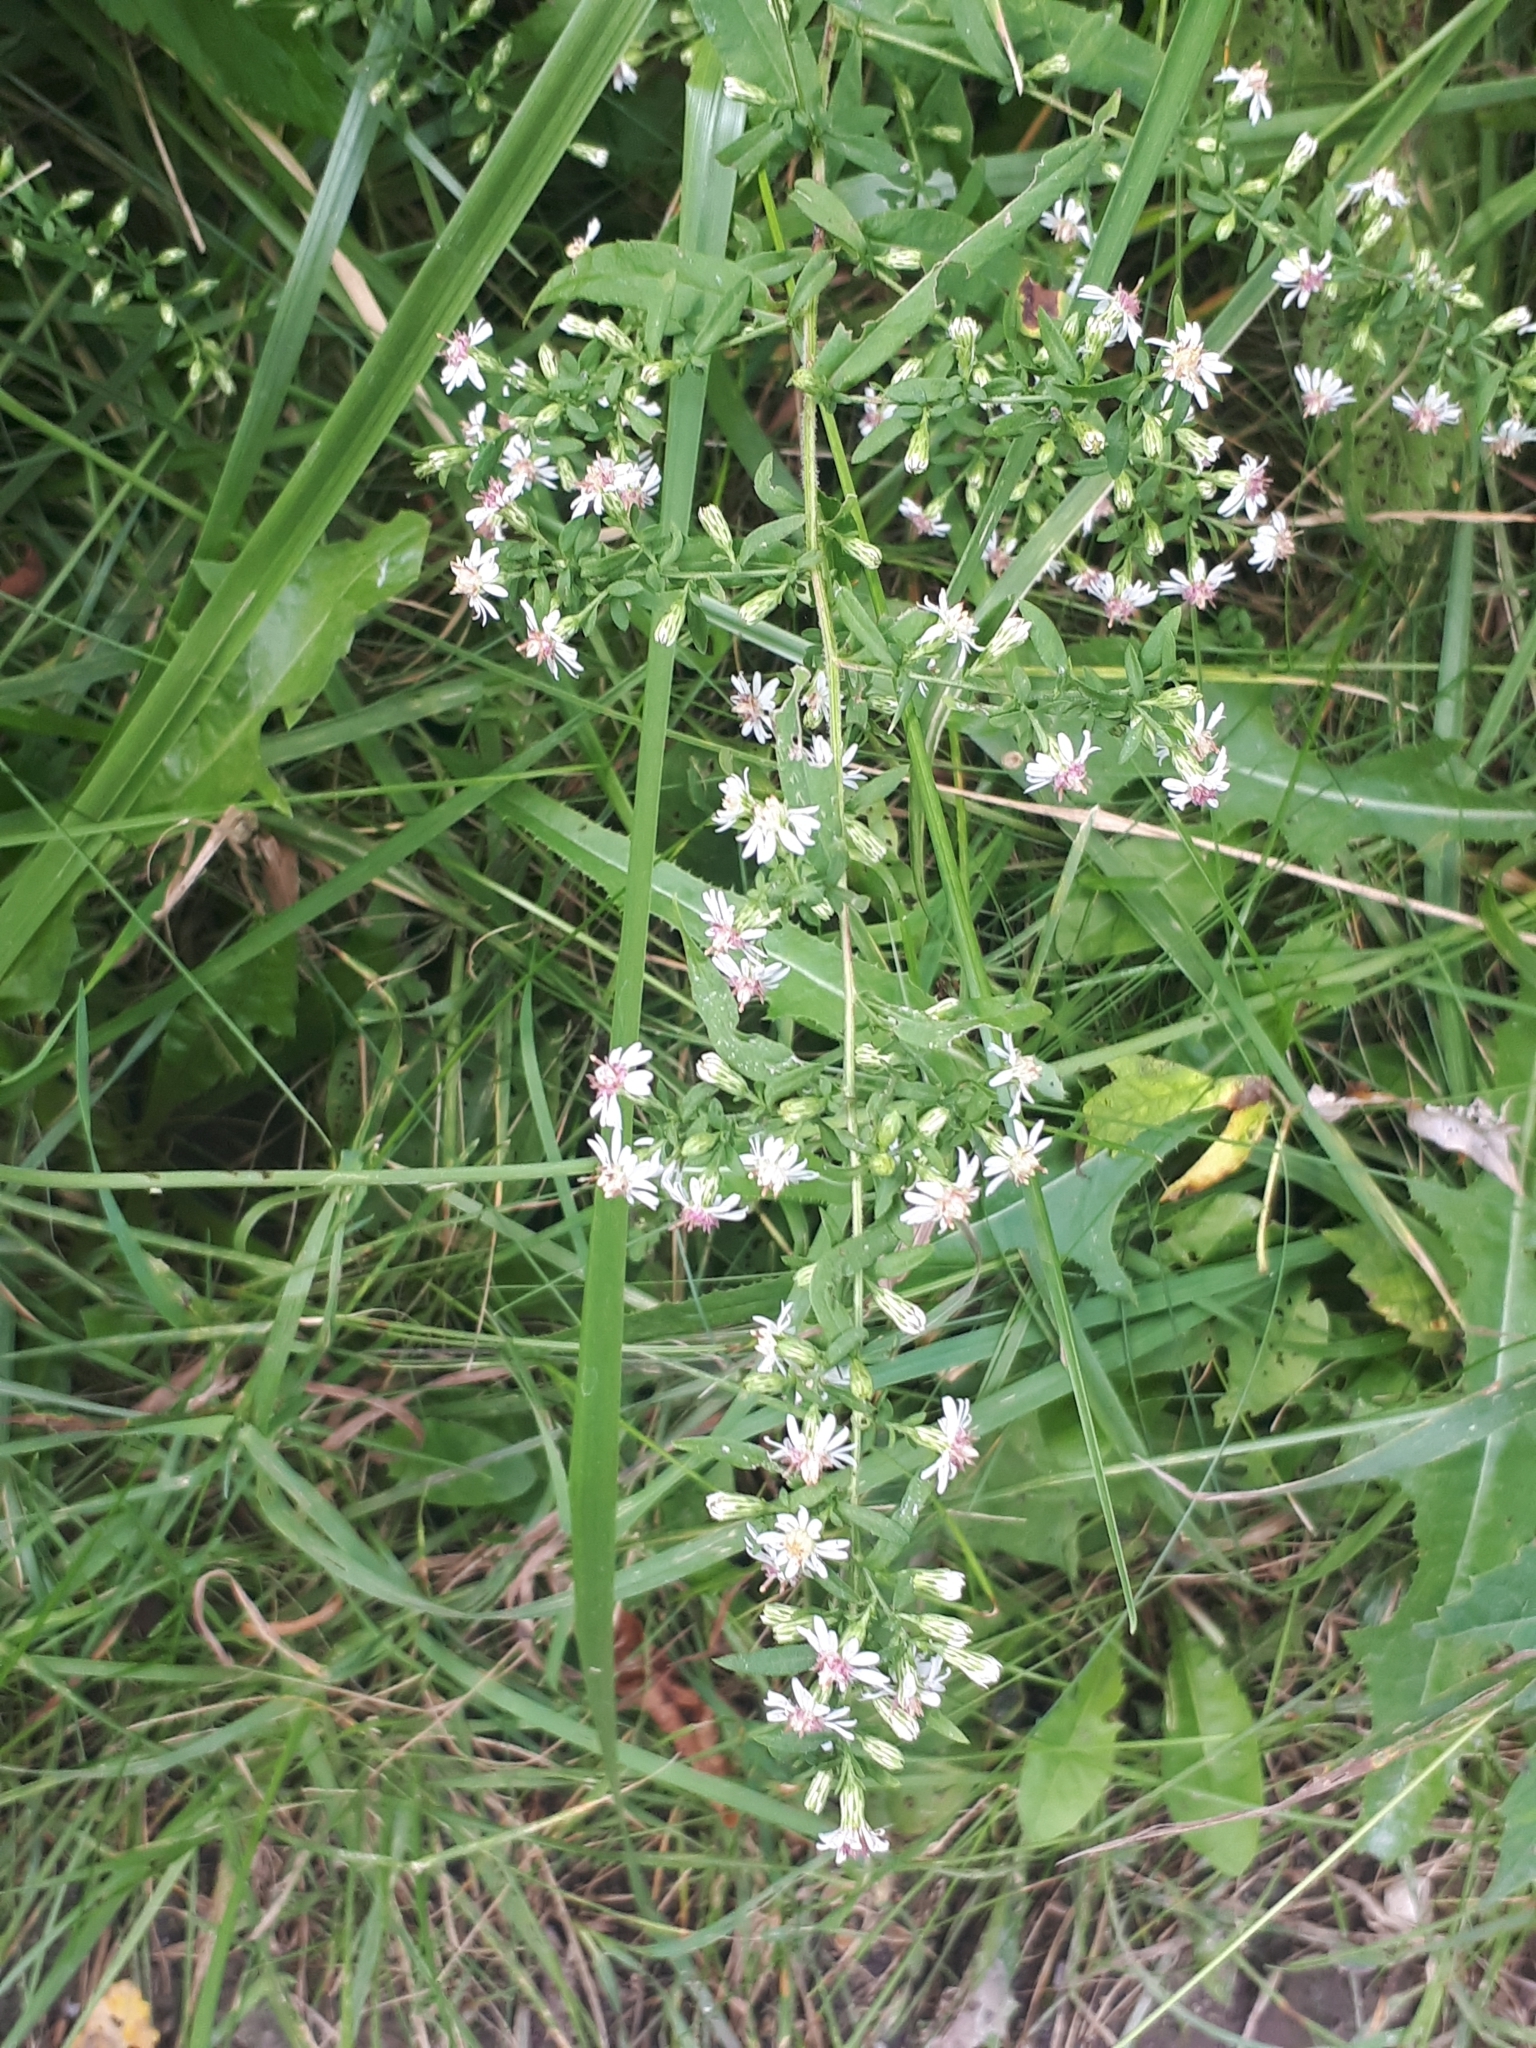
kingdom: Plantae
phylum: Tracheophyta
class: Magnoliopsida
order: Asterales
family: Asteraceae
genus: Symphyotrichum
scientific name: Symphyotrichum lateriflorum
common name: Calico aster
